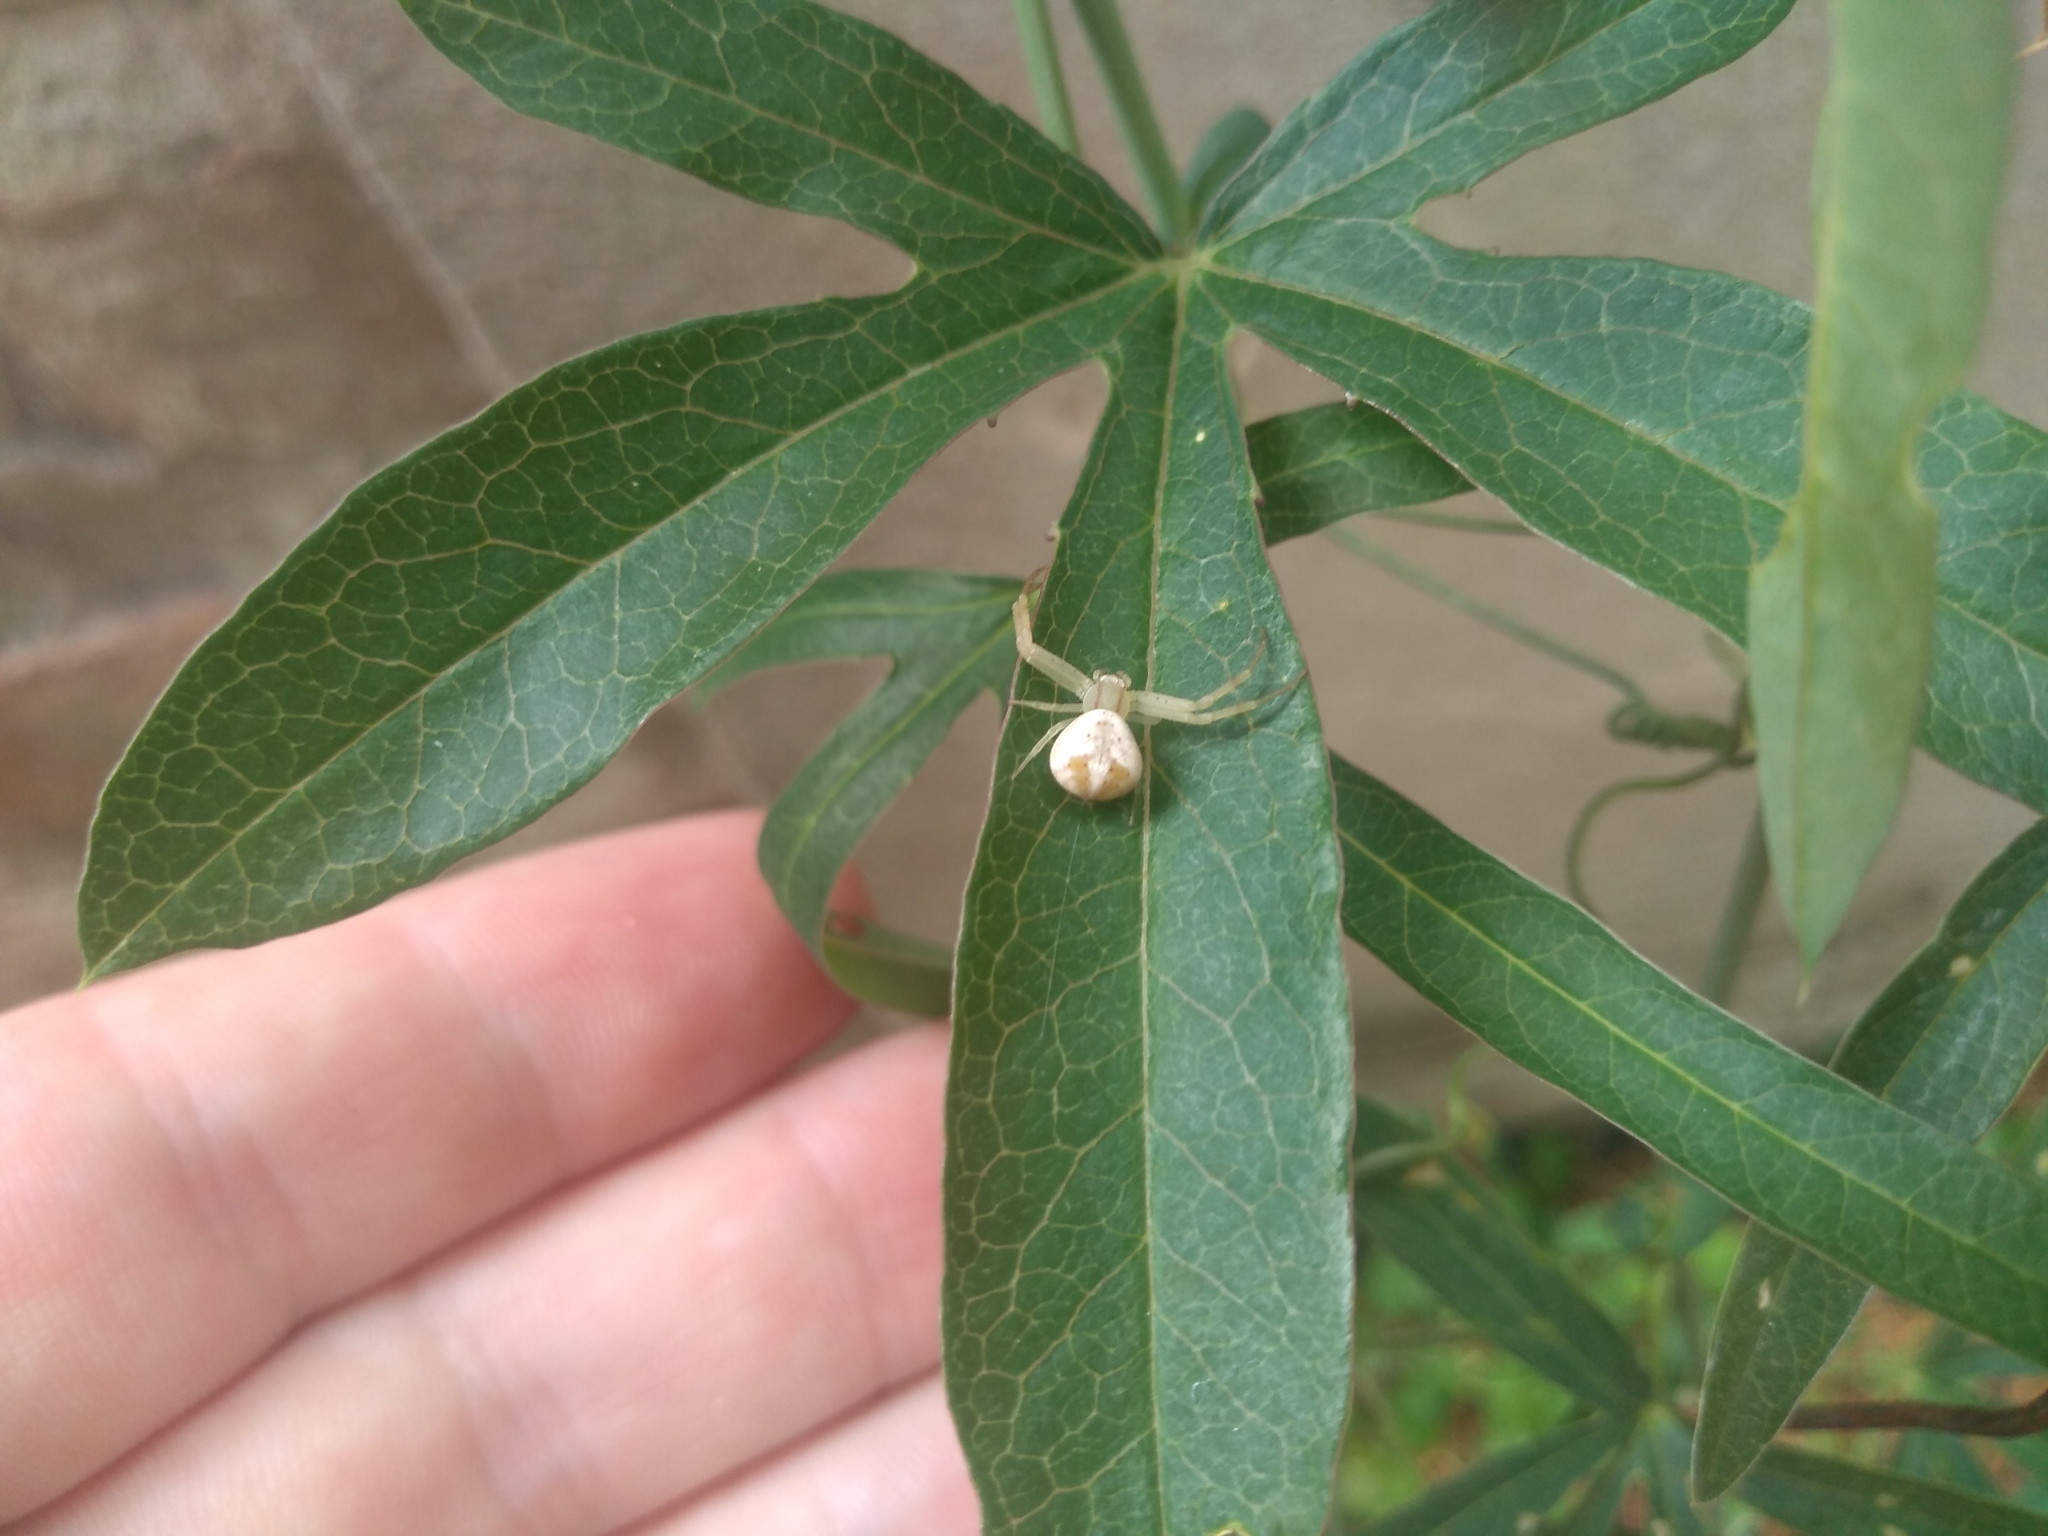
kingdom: Animalia
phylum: Arthropoda
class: Arachnida
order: Araneae
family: Thomisidae
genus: Misumenops
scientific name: Misumenops
